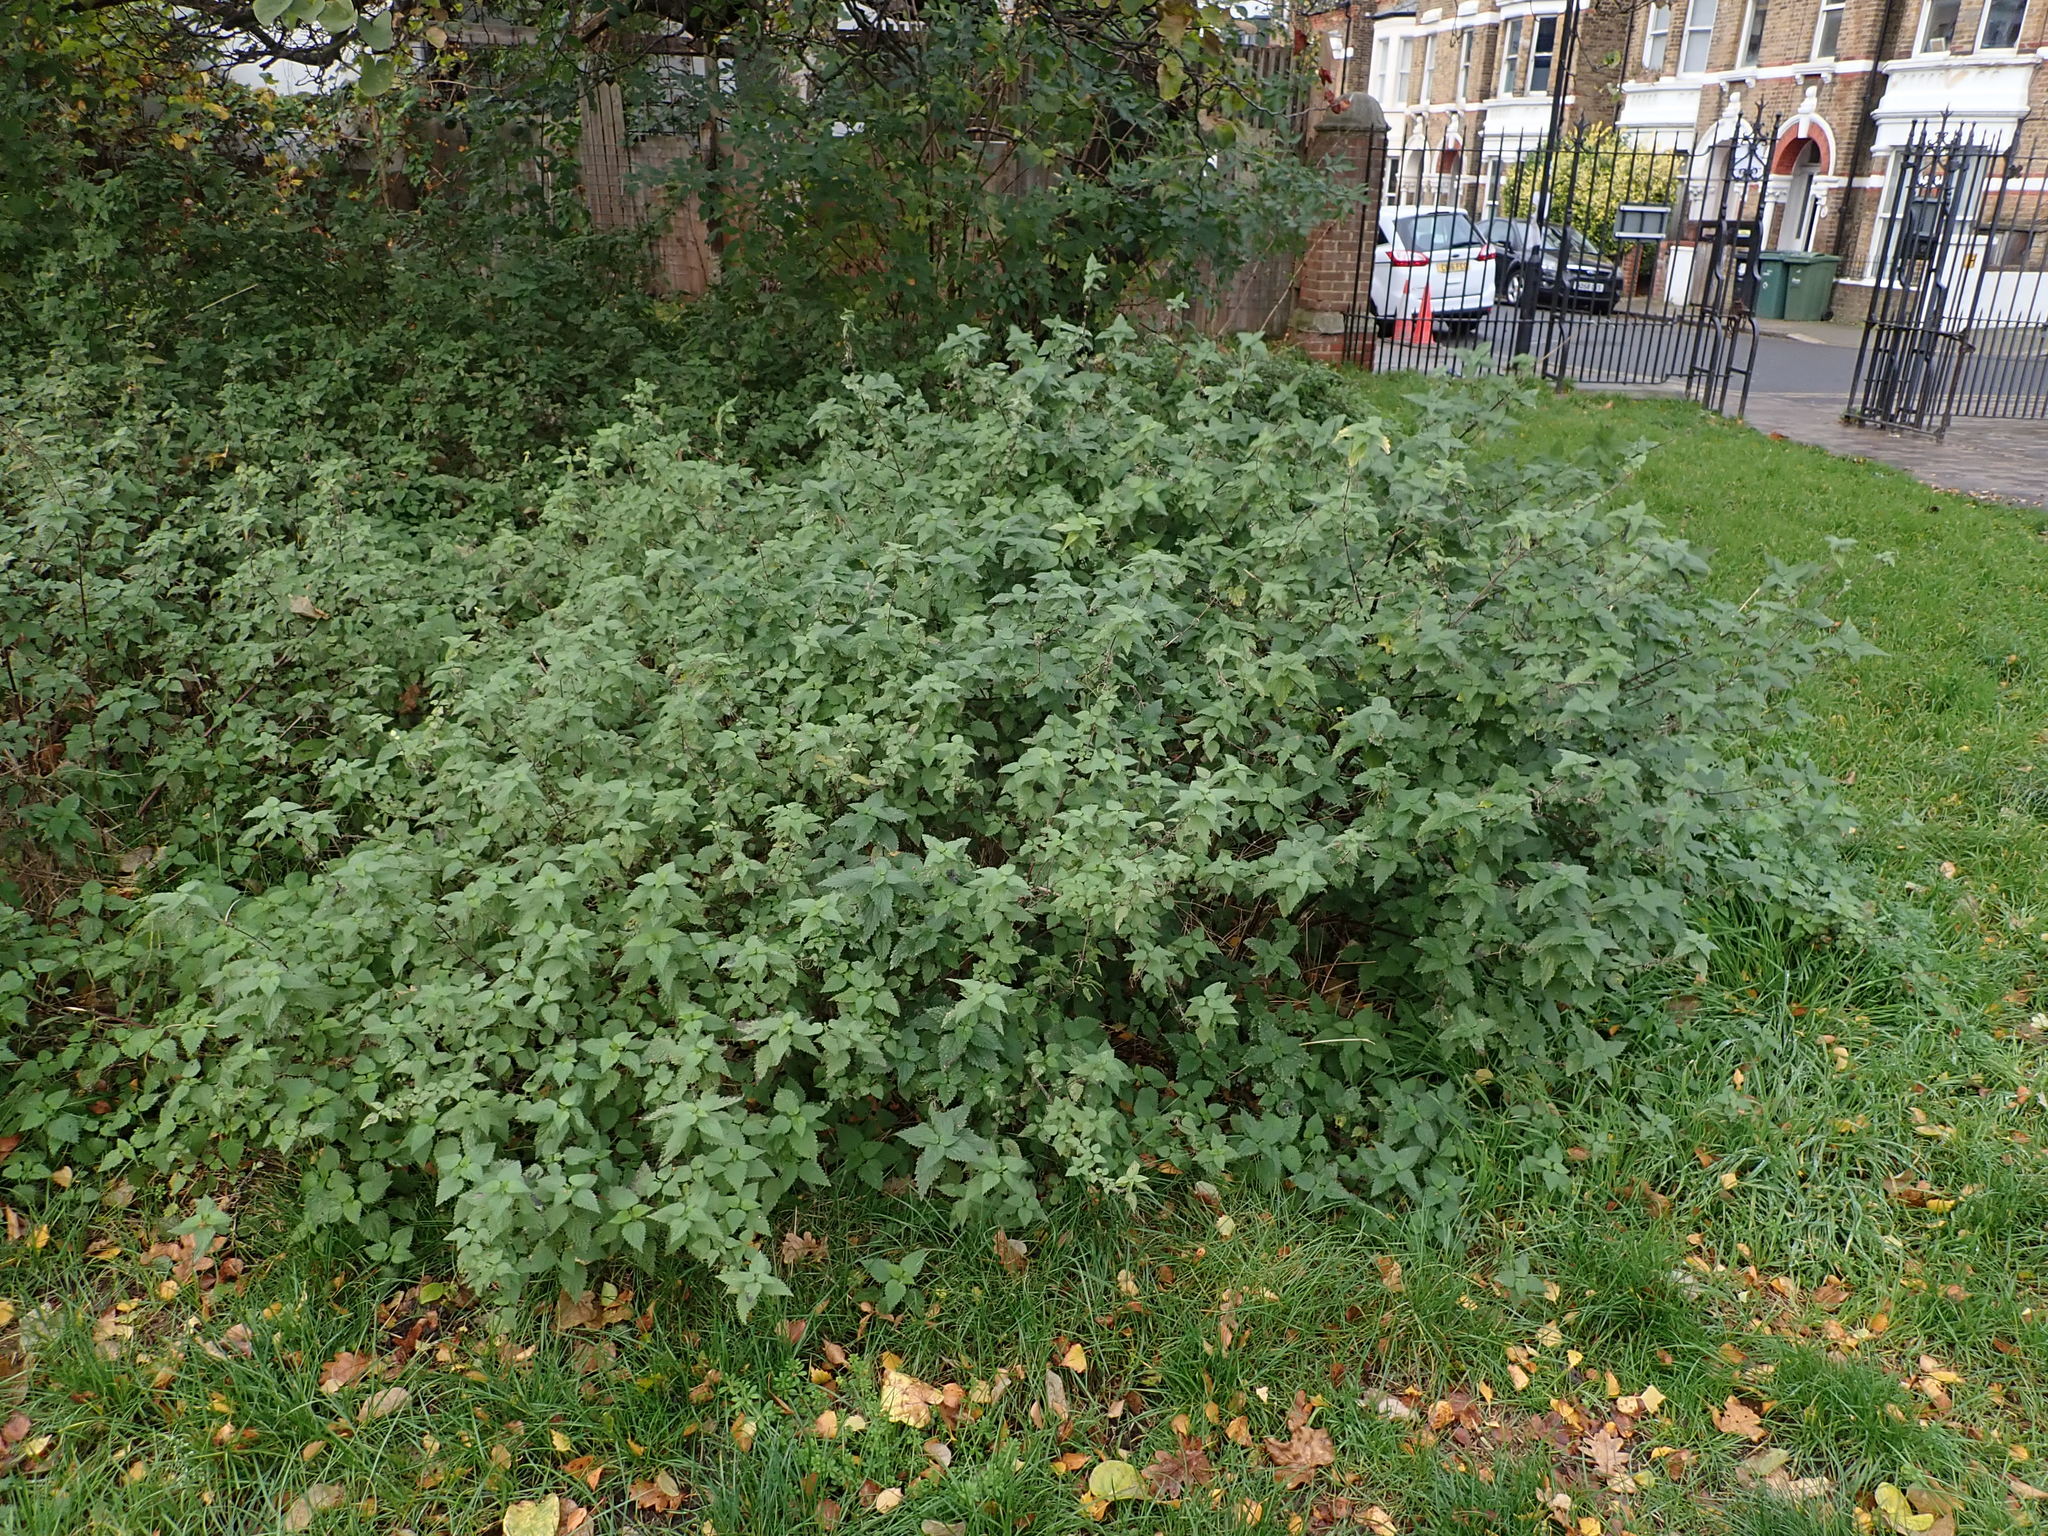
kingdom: Plantae
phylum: Tracheophyta
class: Magnoliopsida
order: Rosales
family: Urticaceae
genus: Urtica
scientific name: Urtica dioica
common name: Common nettle
